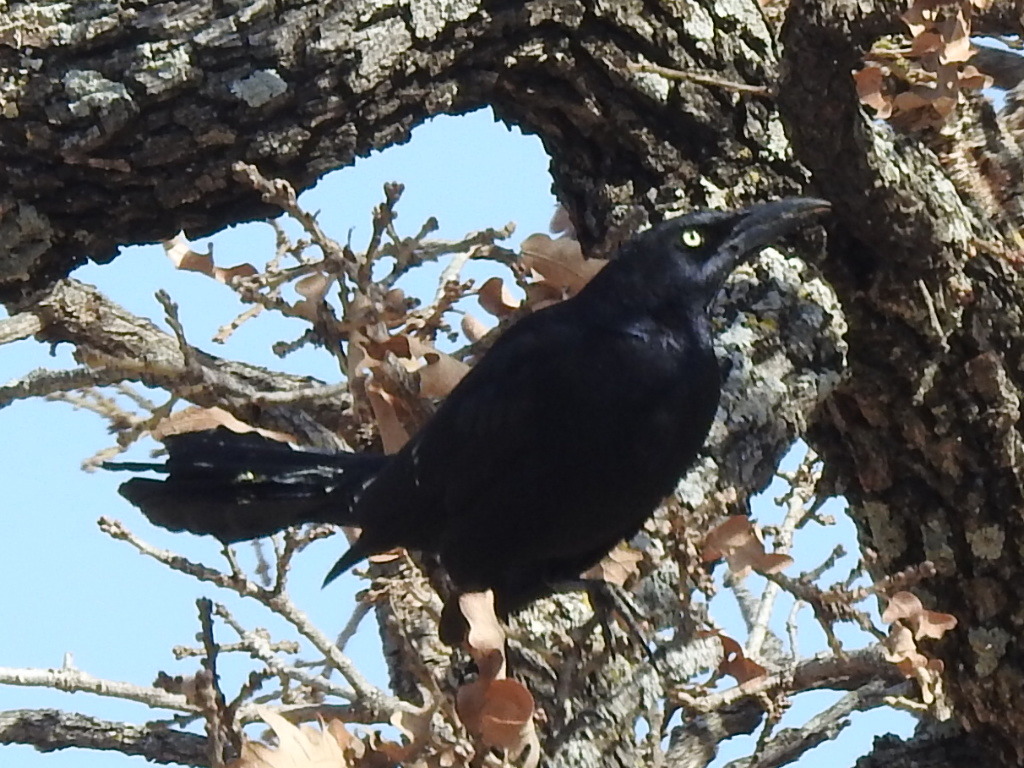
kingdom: Animalia
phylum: Chordata
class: Aves
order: Passeriformes
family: Icteridae
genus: Quiscalus
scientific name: Quiscalus mexicanus
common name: Great-tailed grackle
